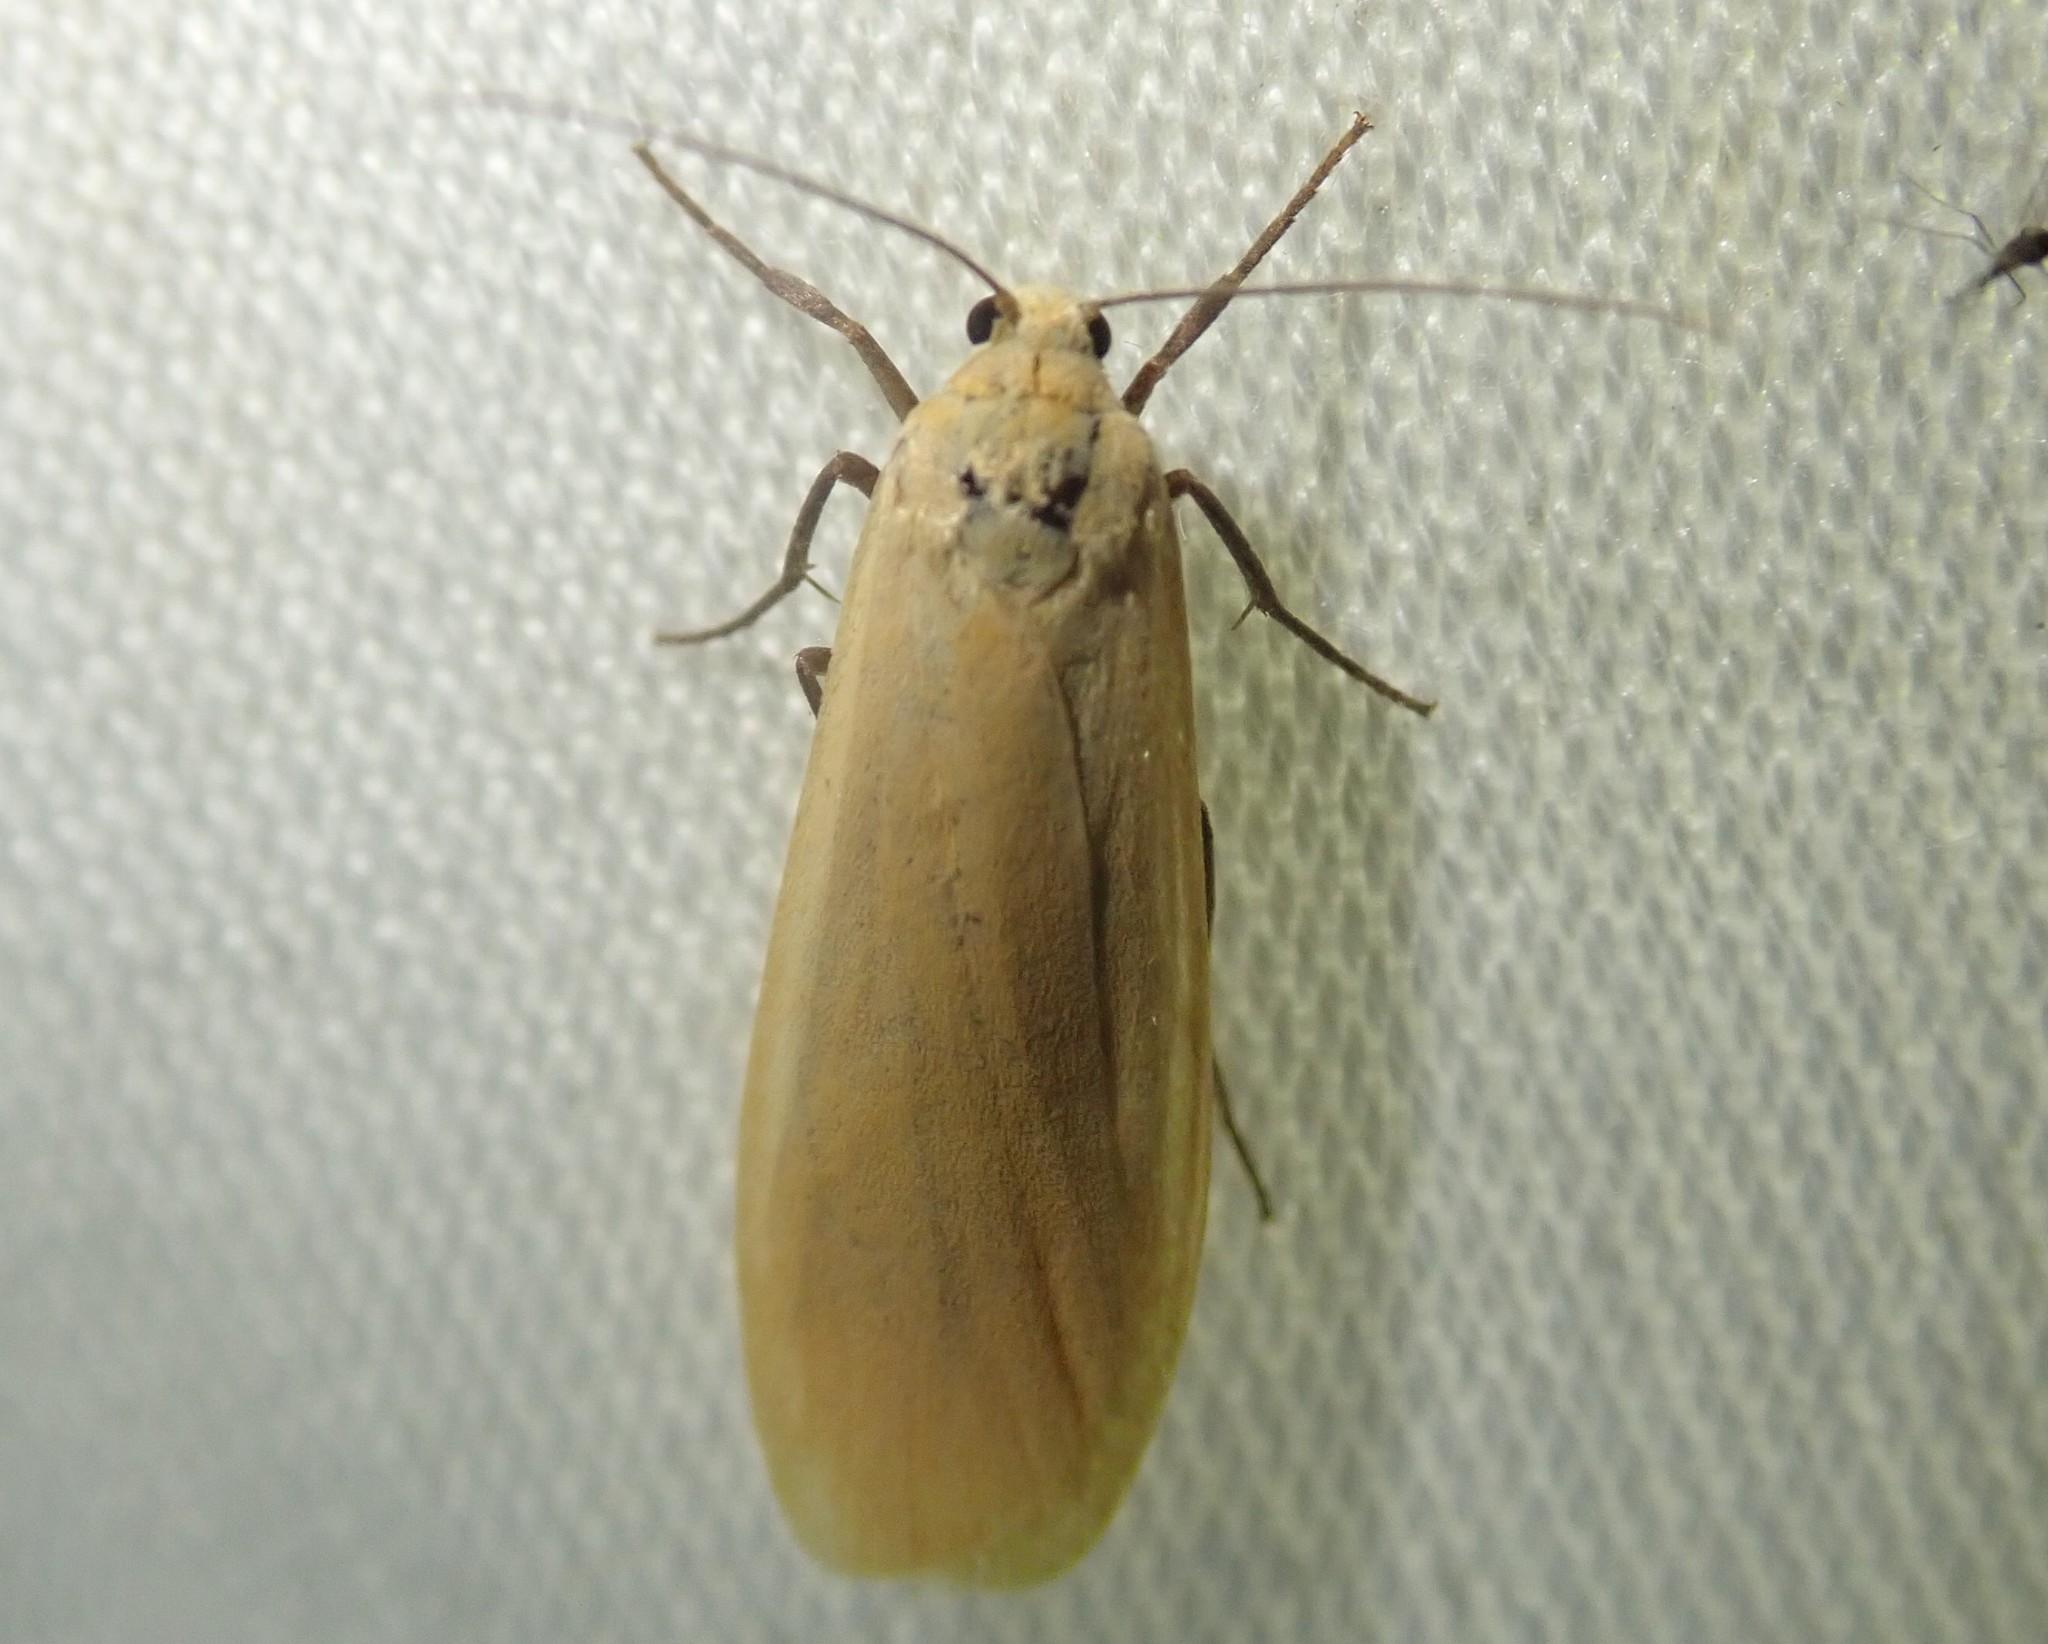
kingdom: Animalia
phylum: Arthropoda
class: Insecta
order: Lepidoptera
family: Erebidae
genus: Wittia
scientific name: Wittia sororcula
